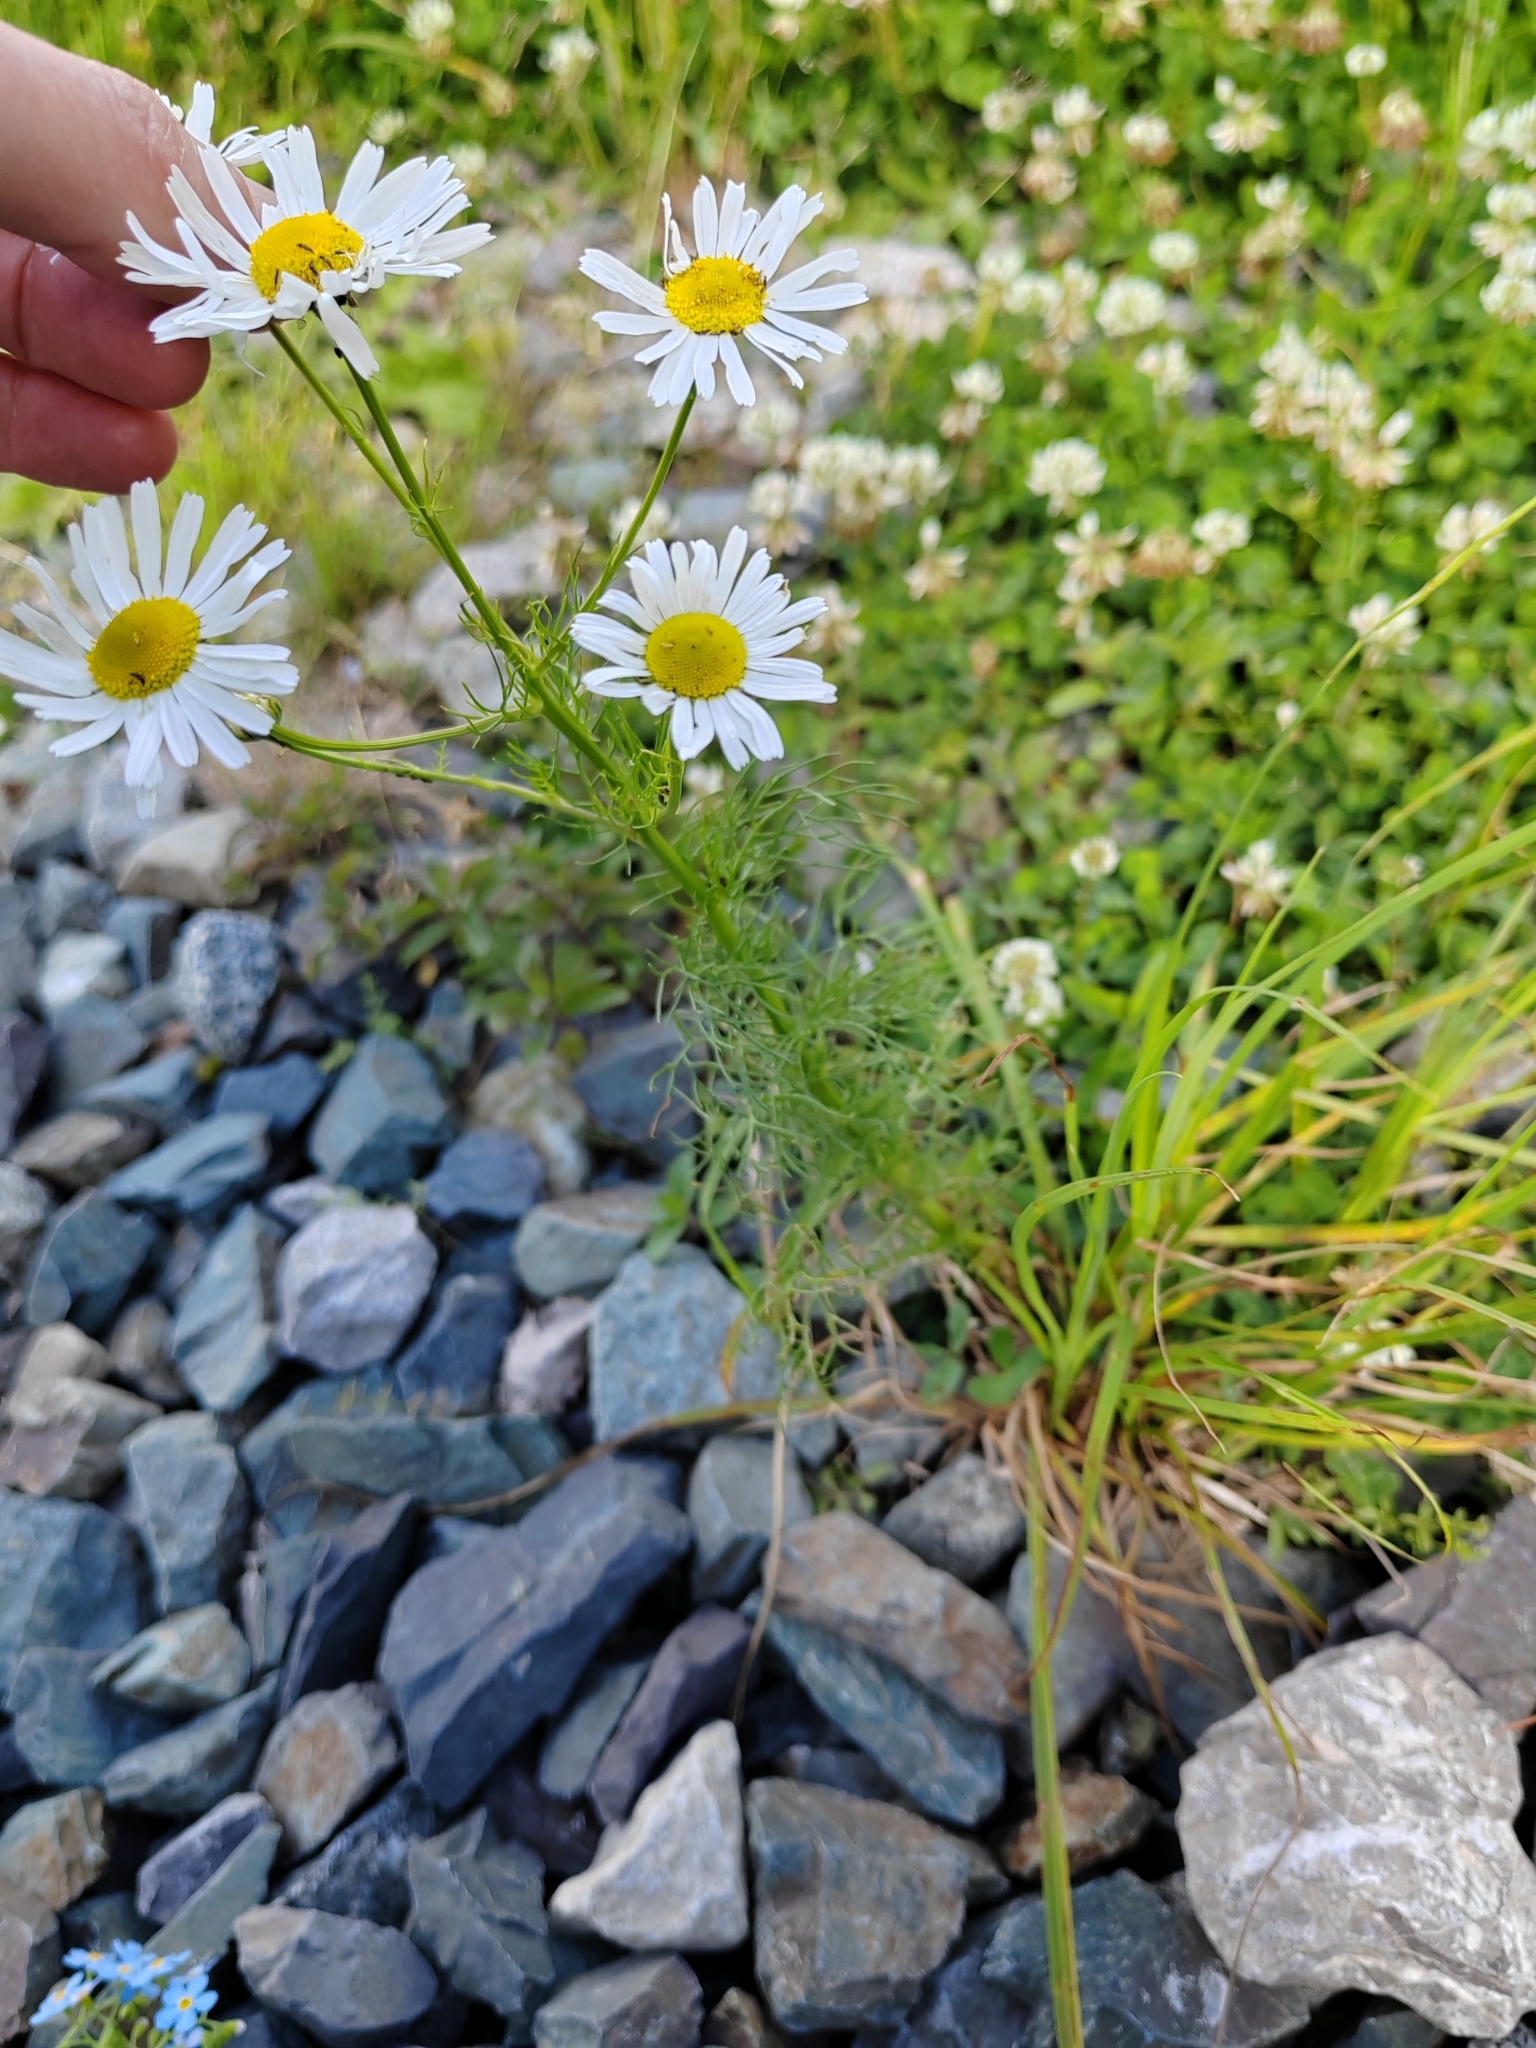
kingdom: Plantae
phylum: Tracheophyta
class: Magnoliopsida
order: Asterales
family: Asteraceae
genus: Tripleurospermum
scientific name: Tripleurospermum inodorum
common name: Scentless mayweed
